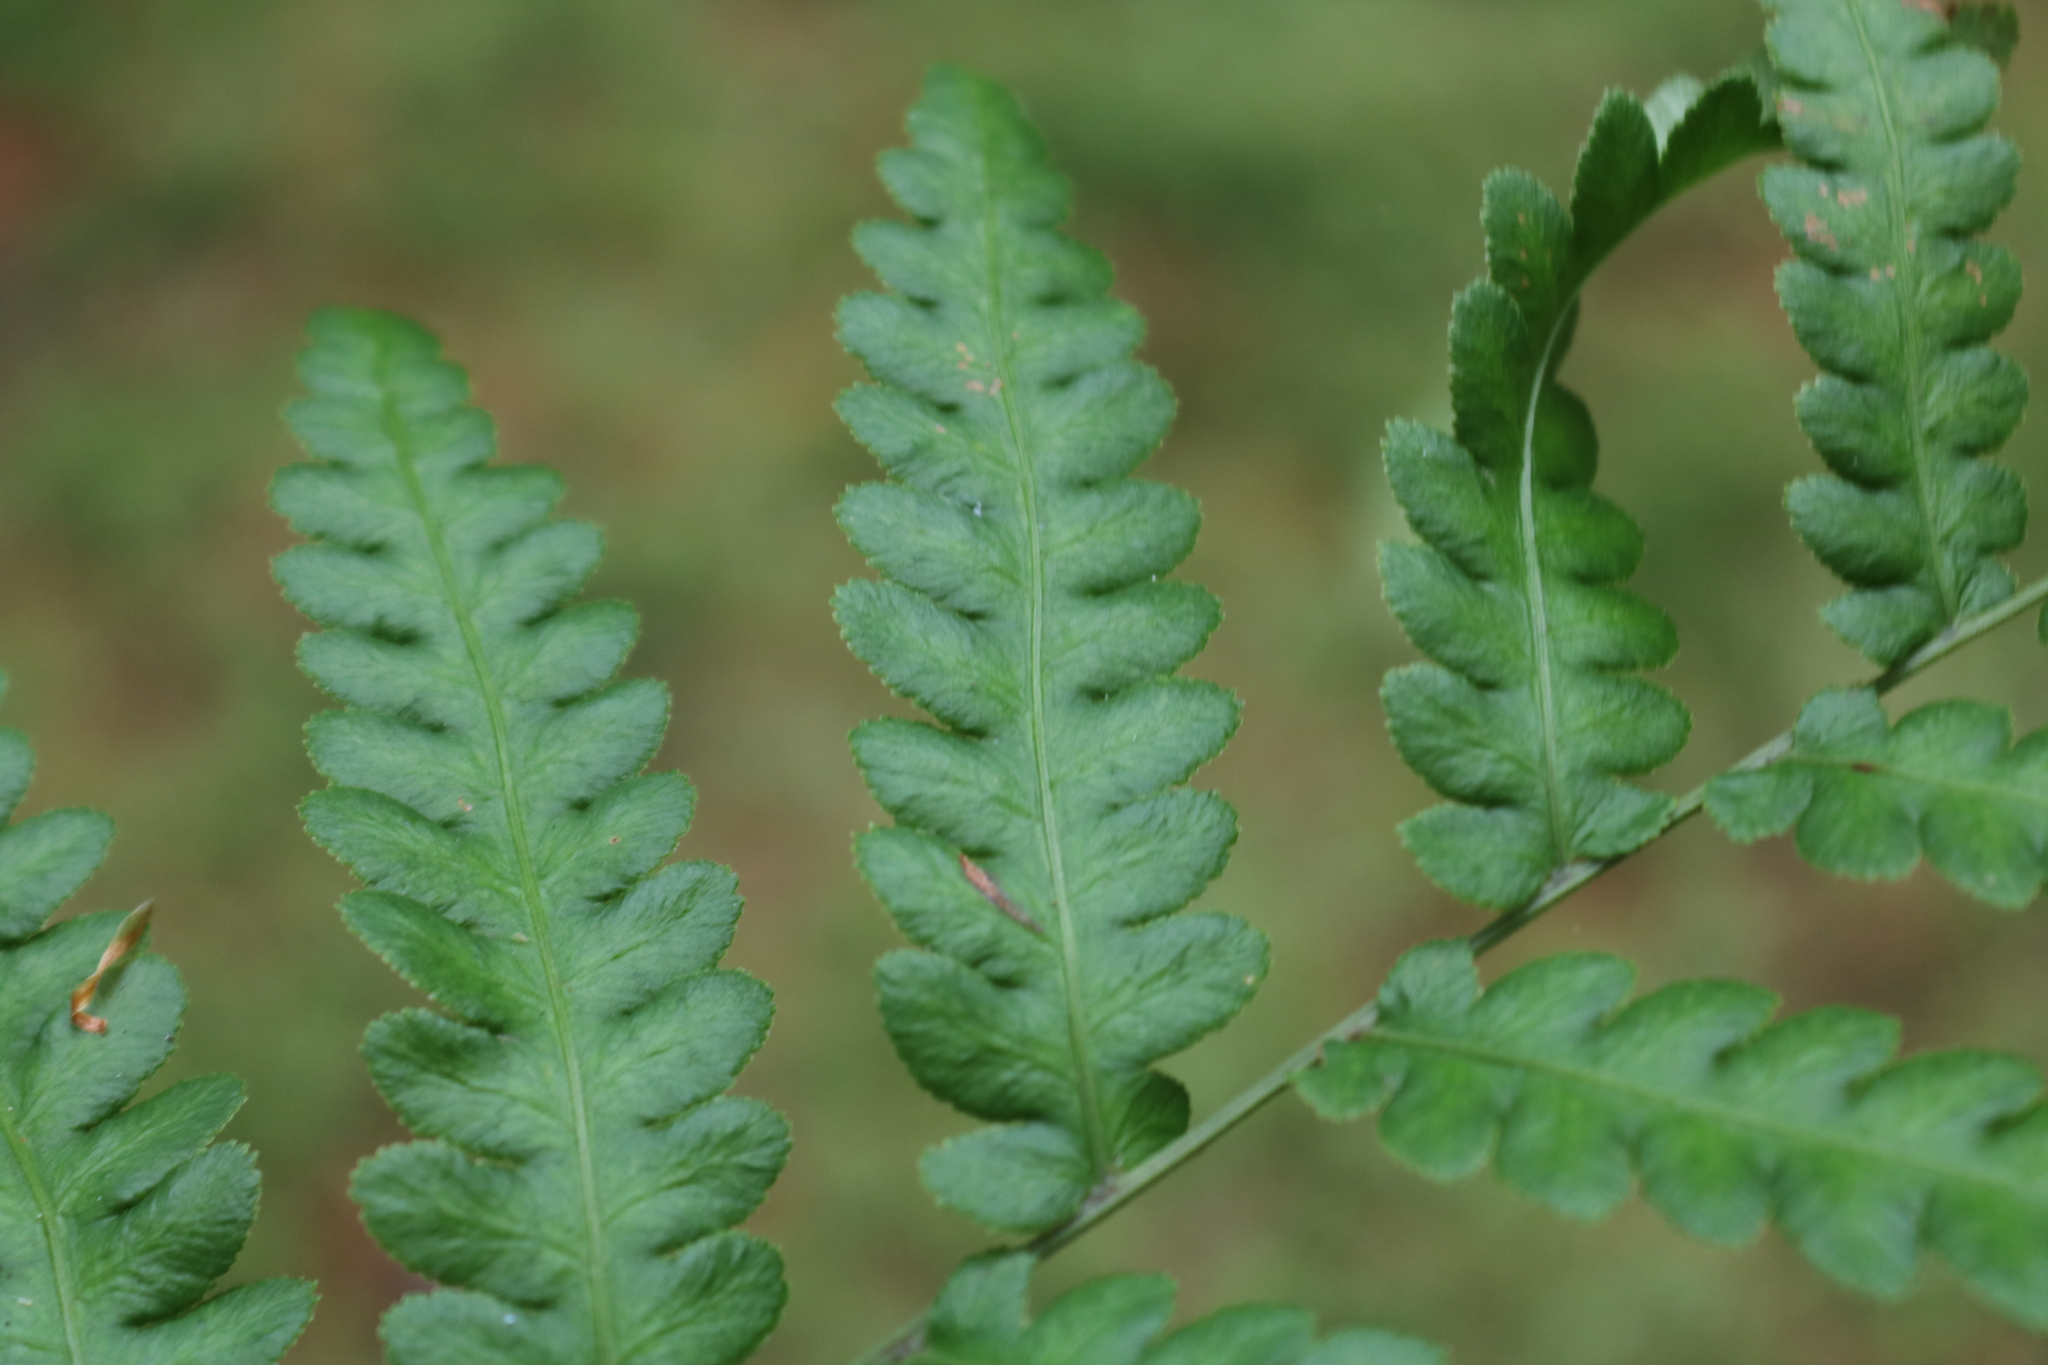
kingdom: Plantae
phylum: Tracheophyta
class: Polypodiopsida
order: Polypodiales
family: Blechnaceae
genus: Anchistea
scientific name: Anchistea virginica
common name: Virginia chain fern
